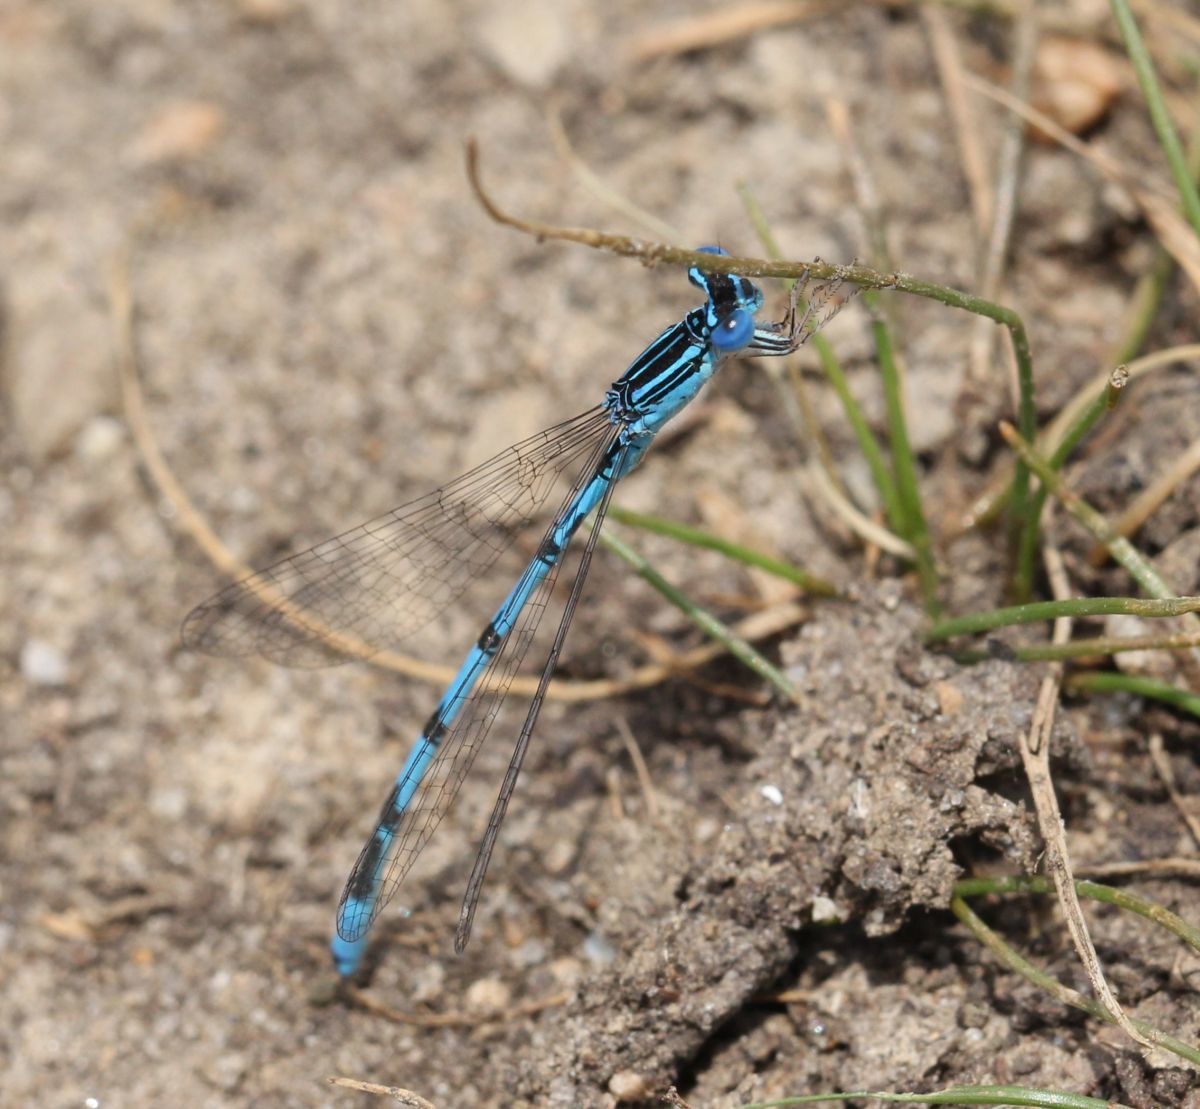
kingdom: Animalia
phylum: Arthropoda
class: Insecta
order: Odonata
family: Coenagrionidae
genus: Enallagma
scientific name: Enallagma basidens
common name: Double-striped bluet
